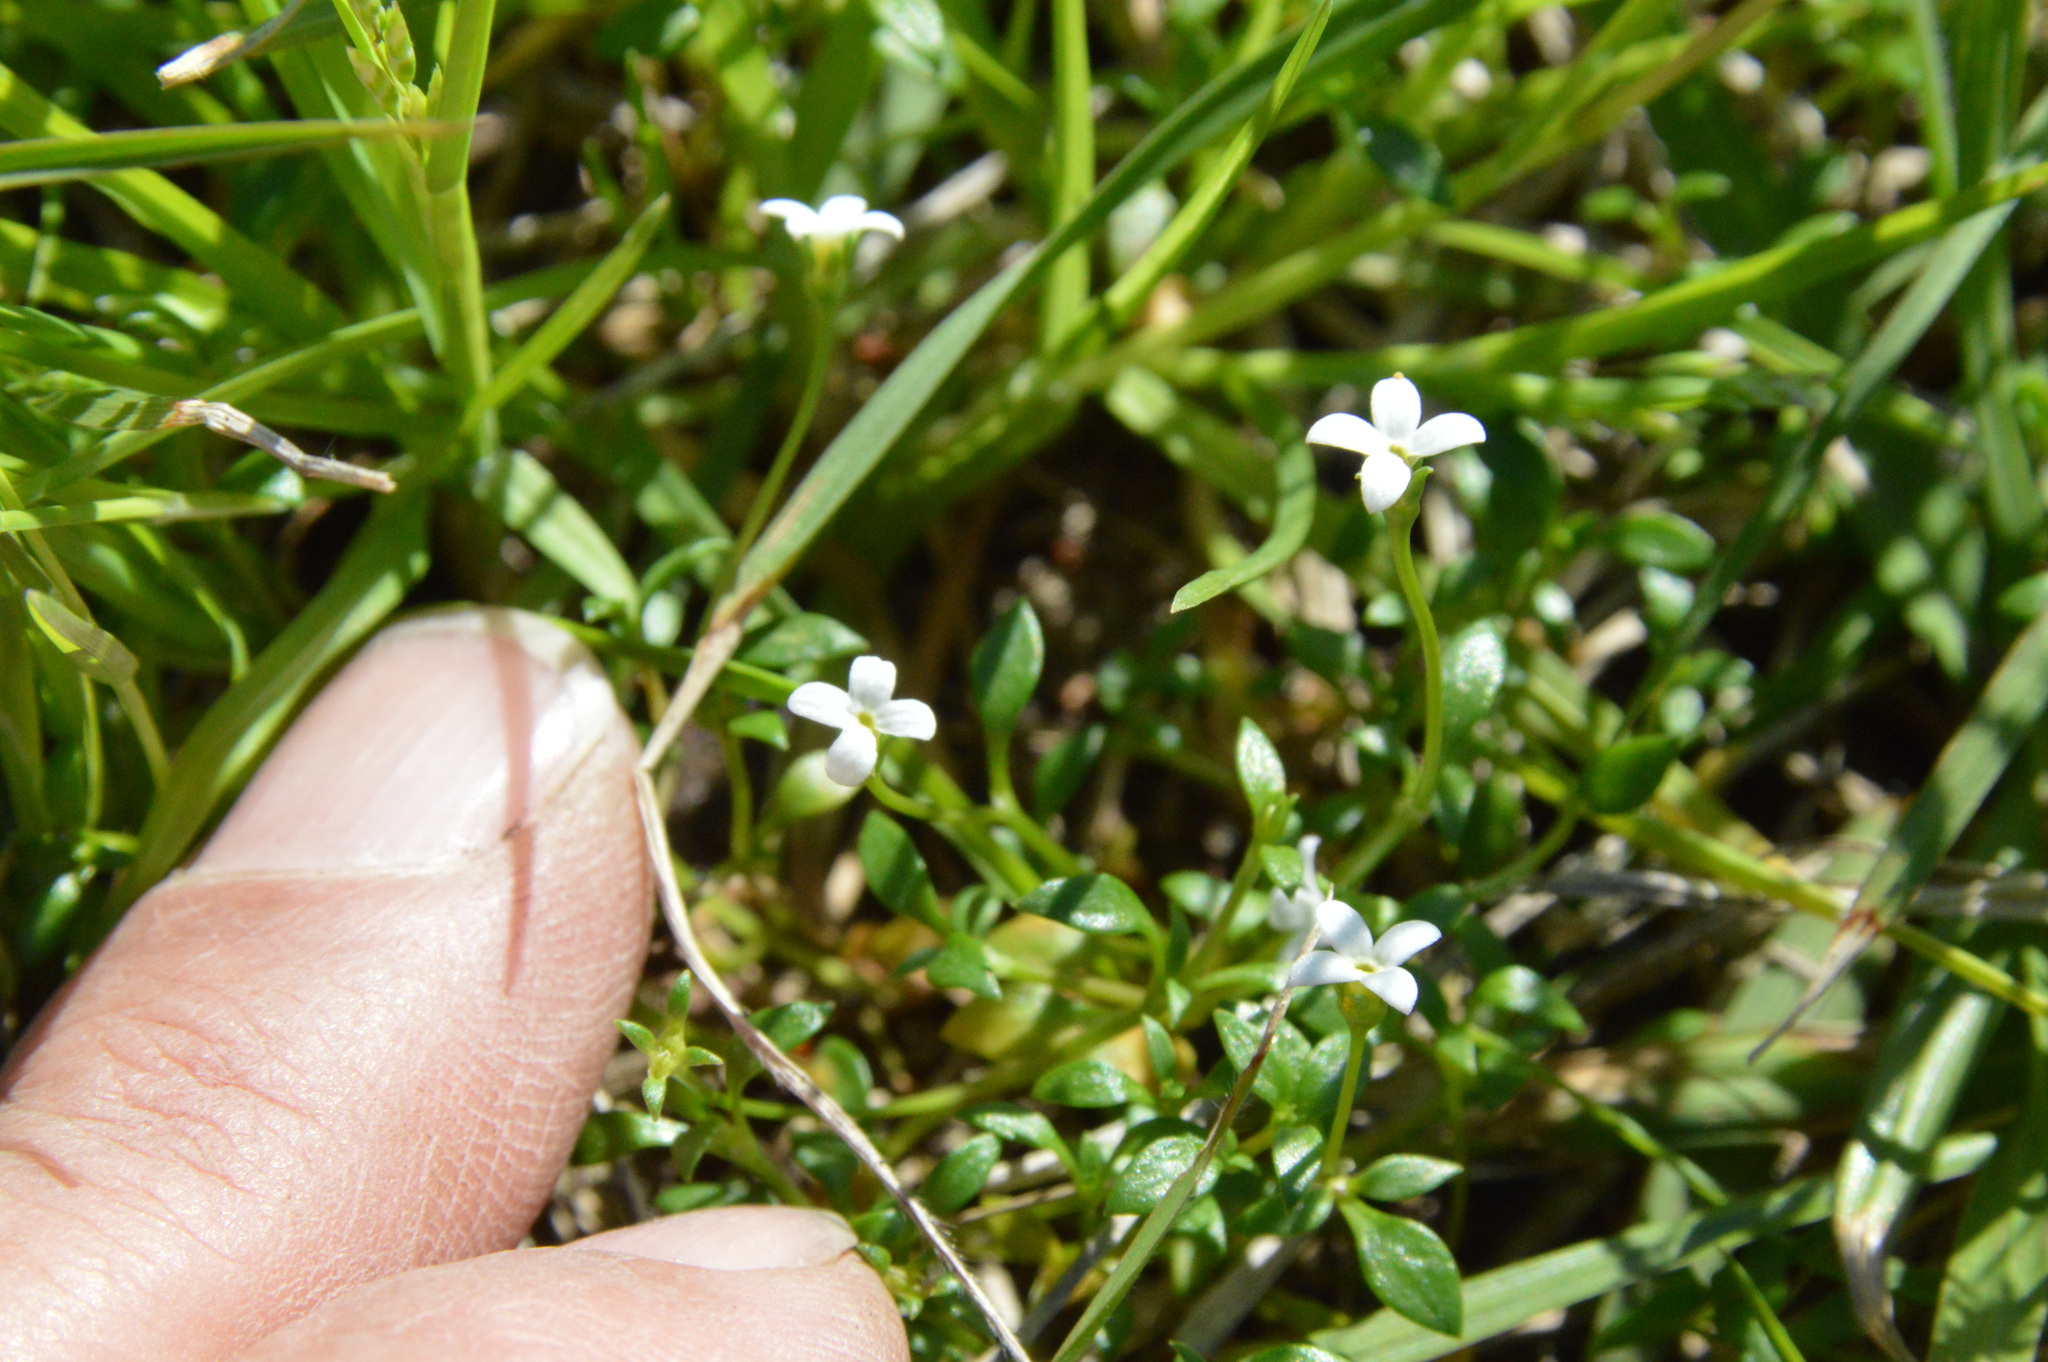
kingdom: Plantae
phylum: Tracheophyta
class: Magnoliopsida
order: Gentianales
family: Rubiaceae
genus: Houstonia
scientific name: Houstonia micrantha
